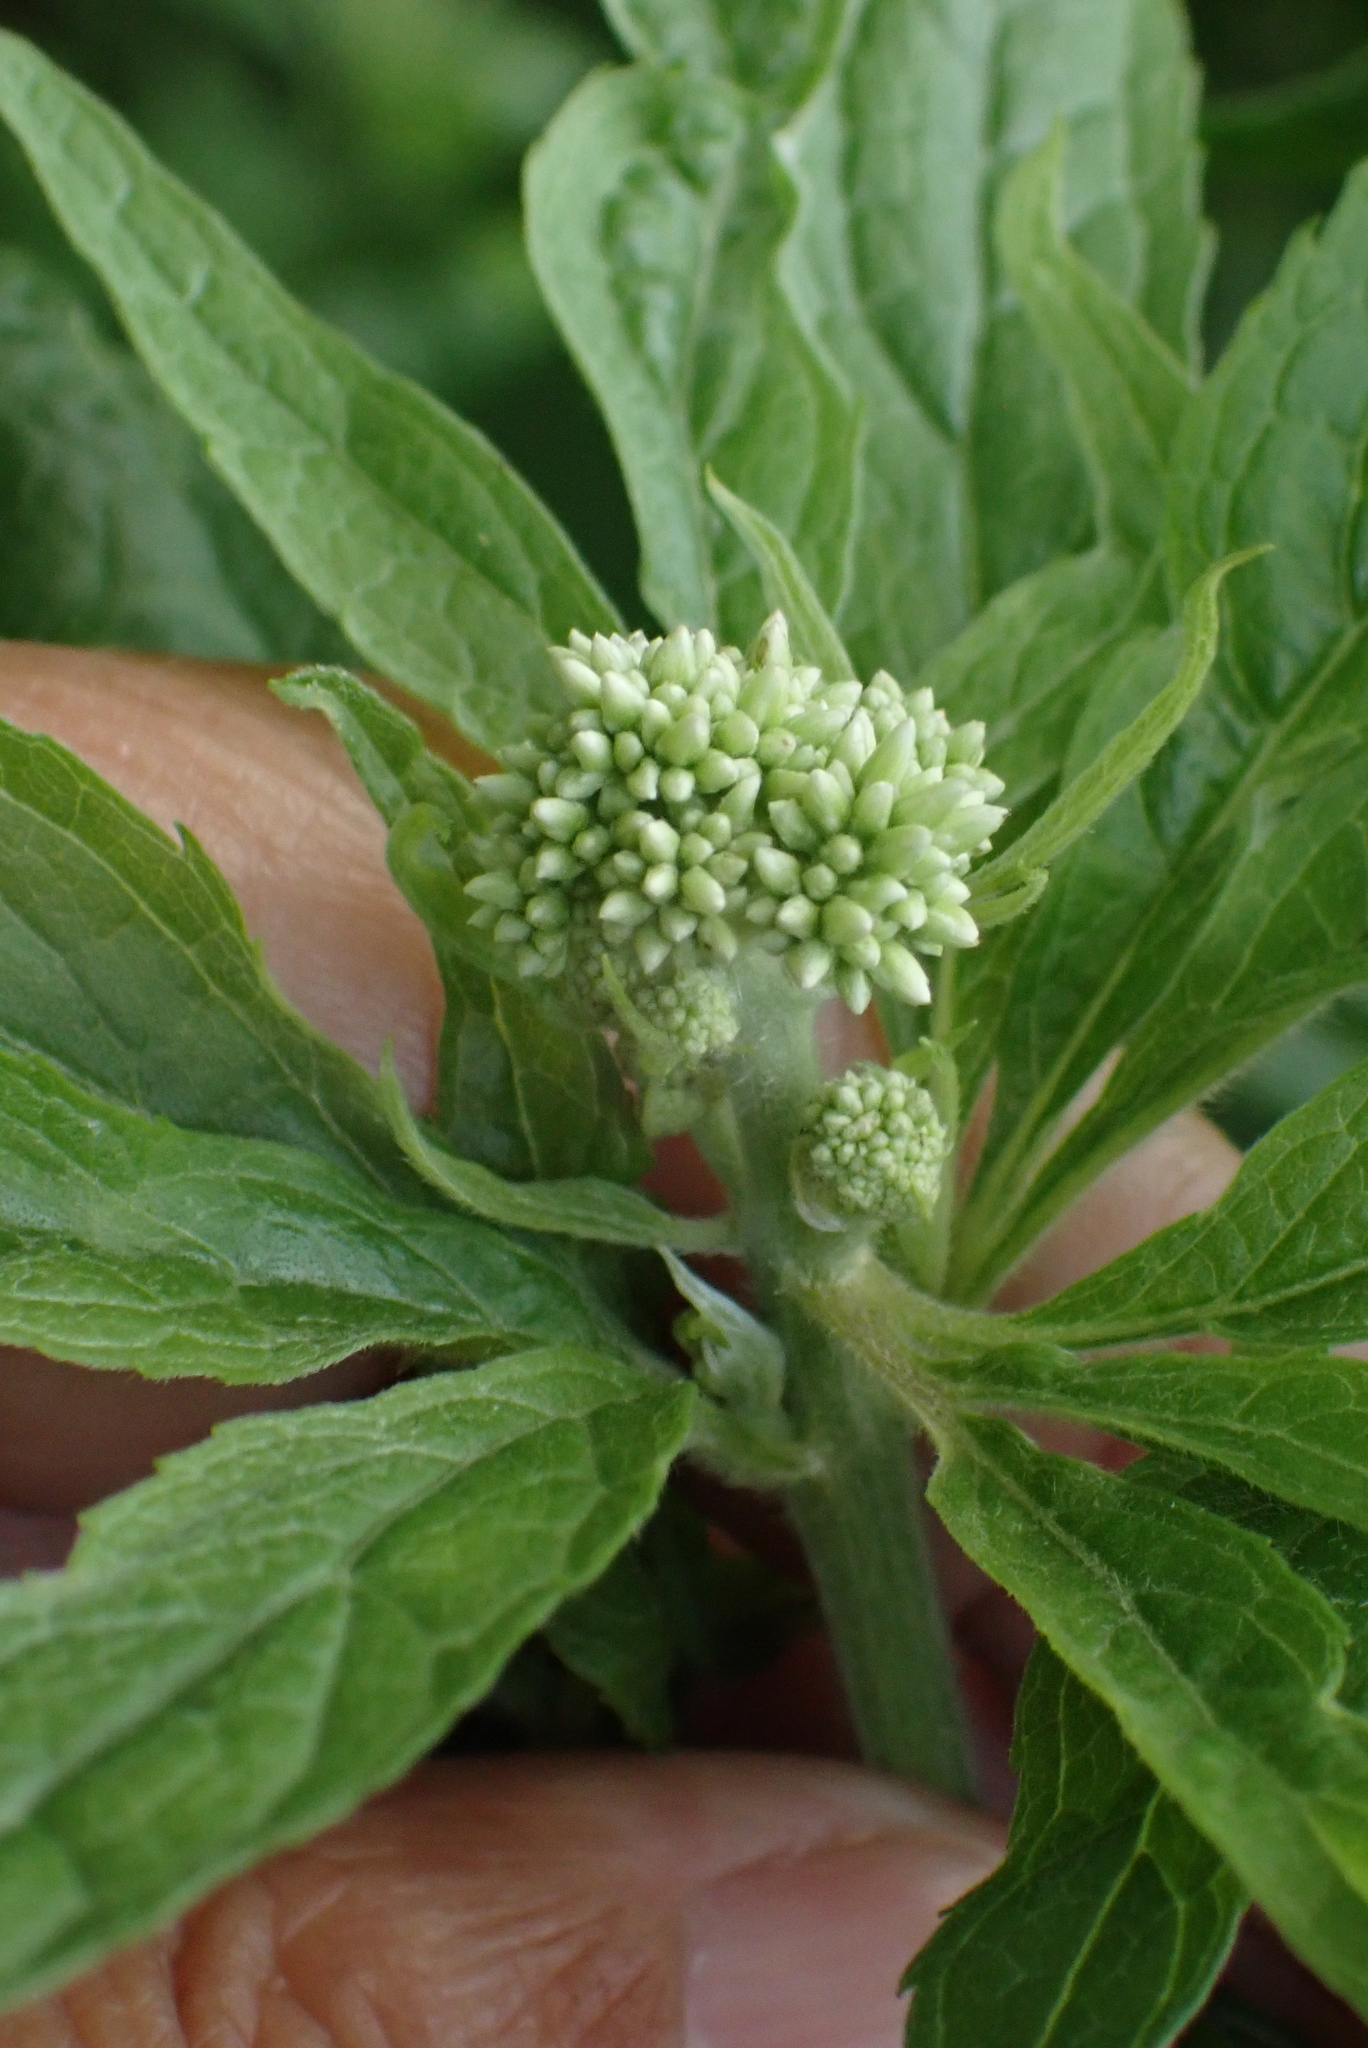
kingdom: Plantae
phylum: Tracheophyta
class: Magnoliopsida
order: Asterales
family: Asteraceae
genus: Eupatorium
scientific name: Eupatorium cannabinum
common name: Hemp-agrimony
